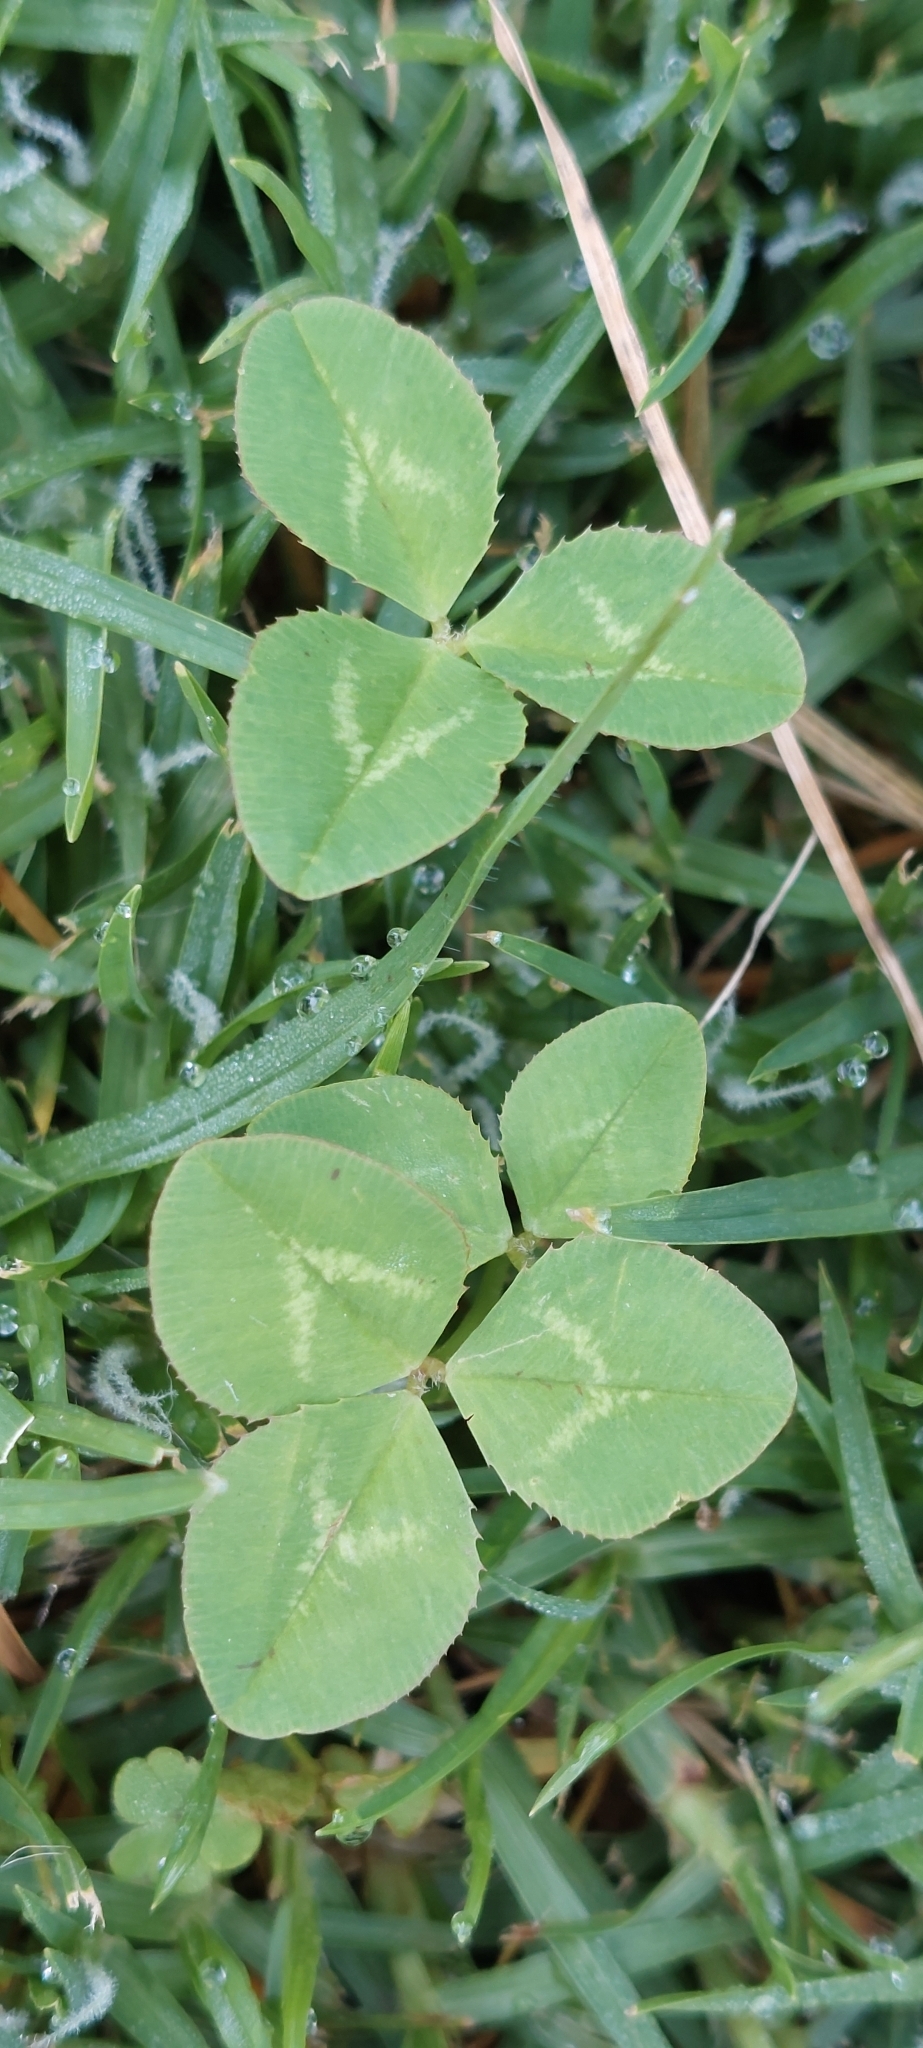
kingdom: Plantae
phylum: Tracheophyta
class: Magnoliopsida
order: Fabales
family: Fabaceae
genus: Trifolium
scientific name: Trifolium repens
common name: White clover
